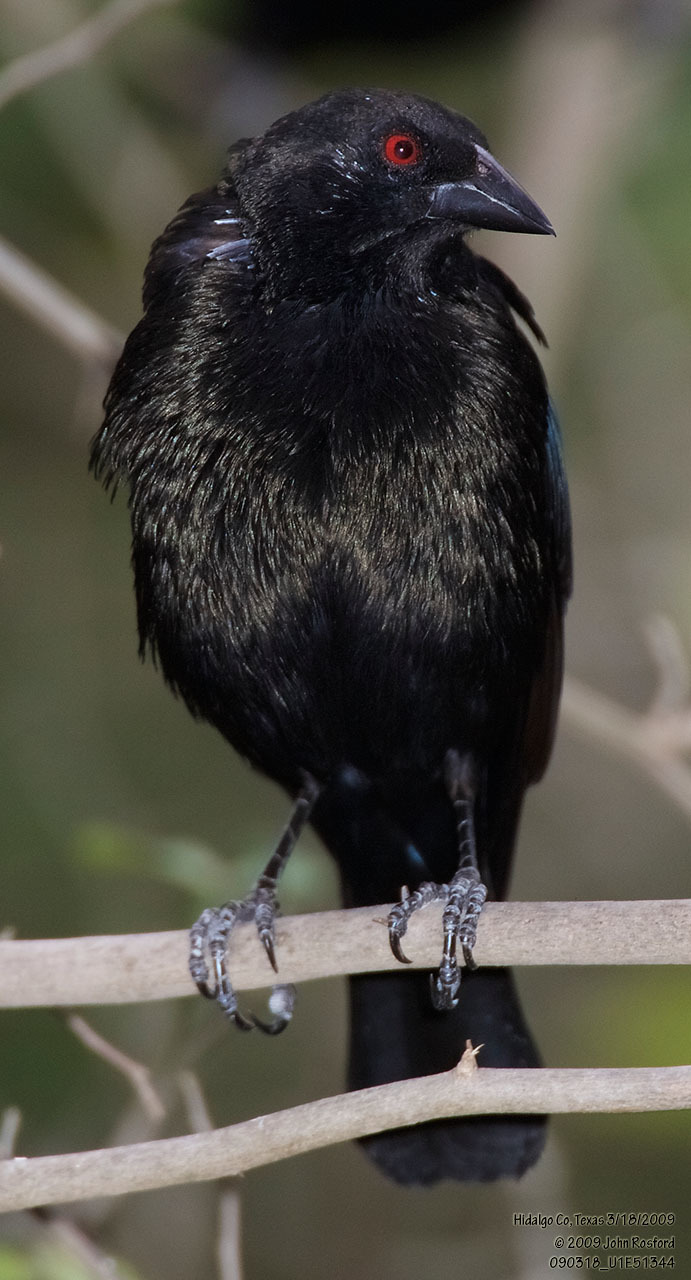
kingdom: Animalia
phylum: Chordata
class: Aves
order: Passeriformes
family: Icteridae
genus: Molothrus
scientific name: Molothrus aeneus
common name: Bronzed cowbird
